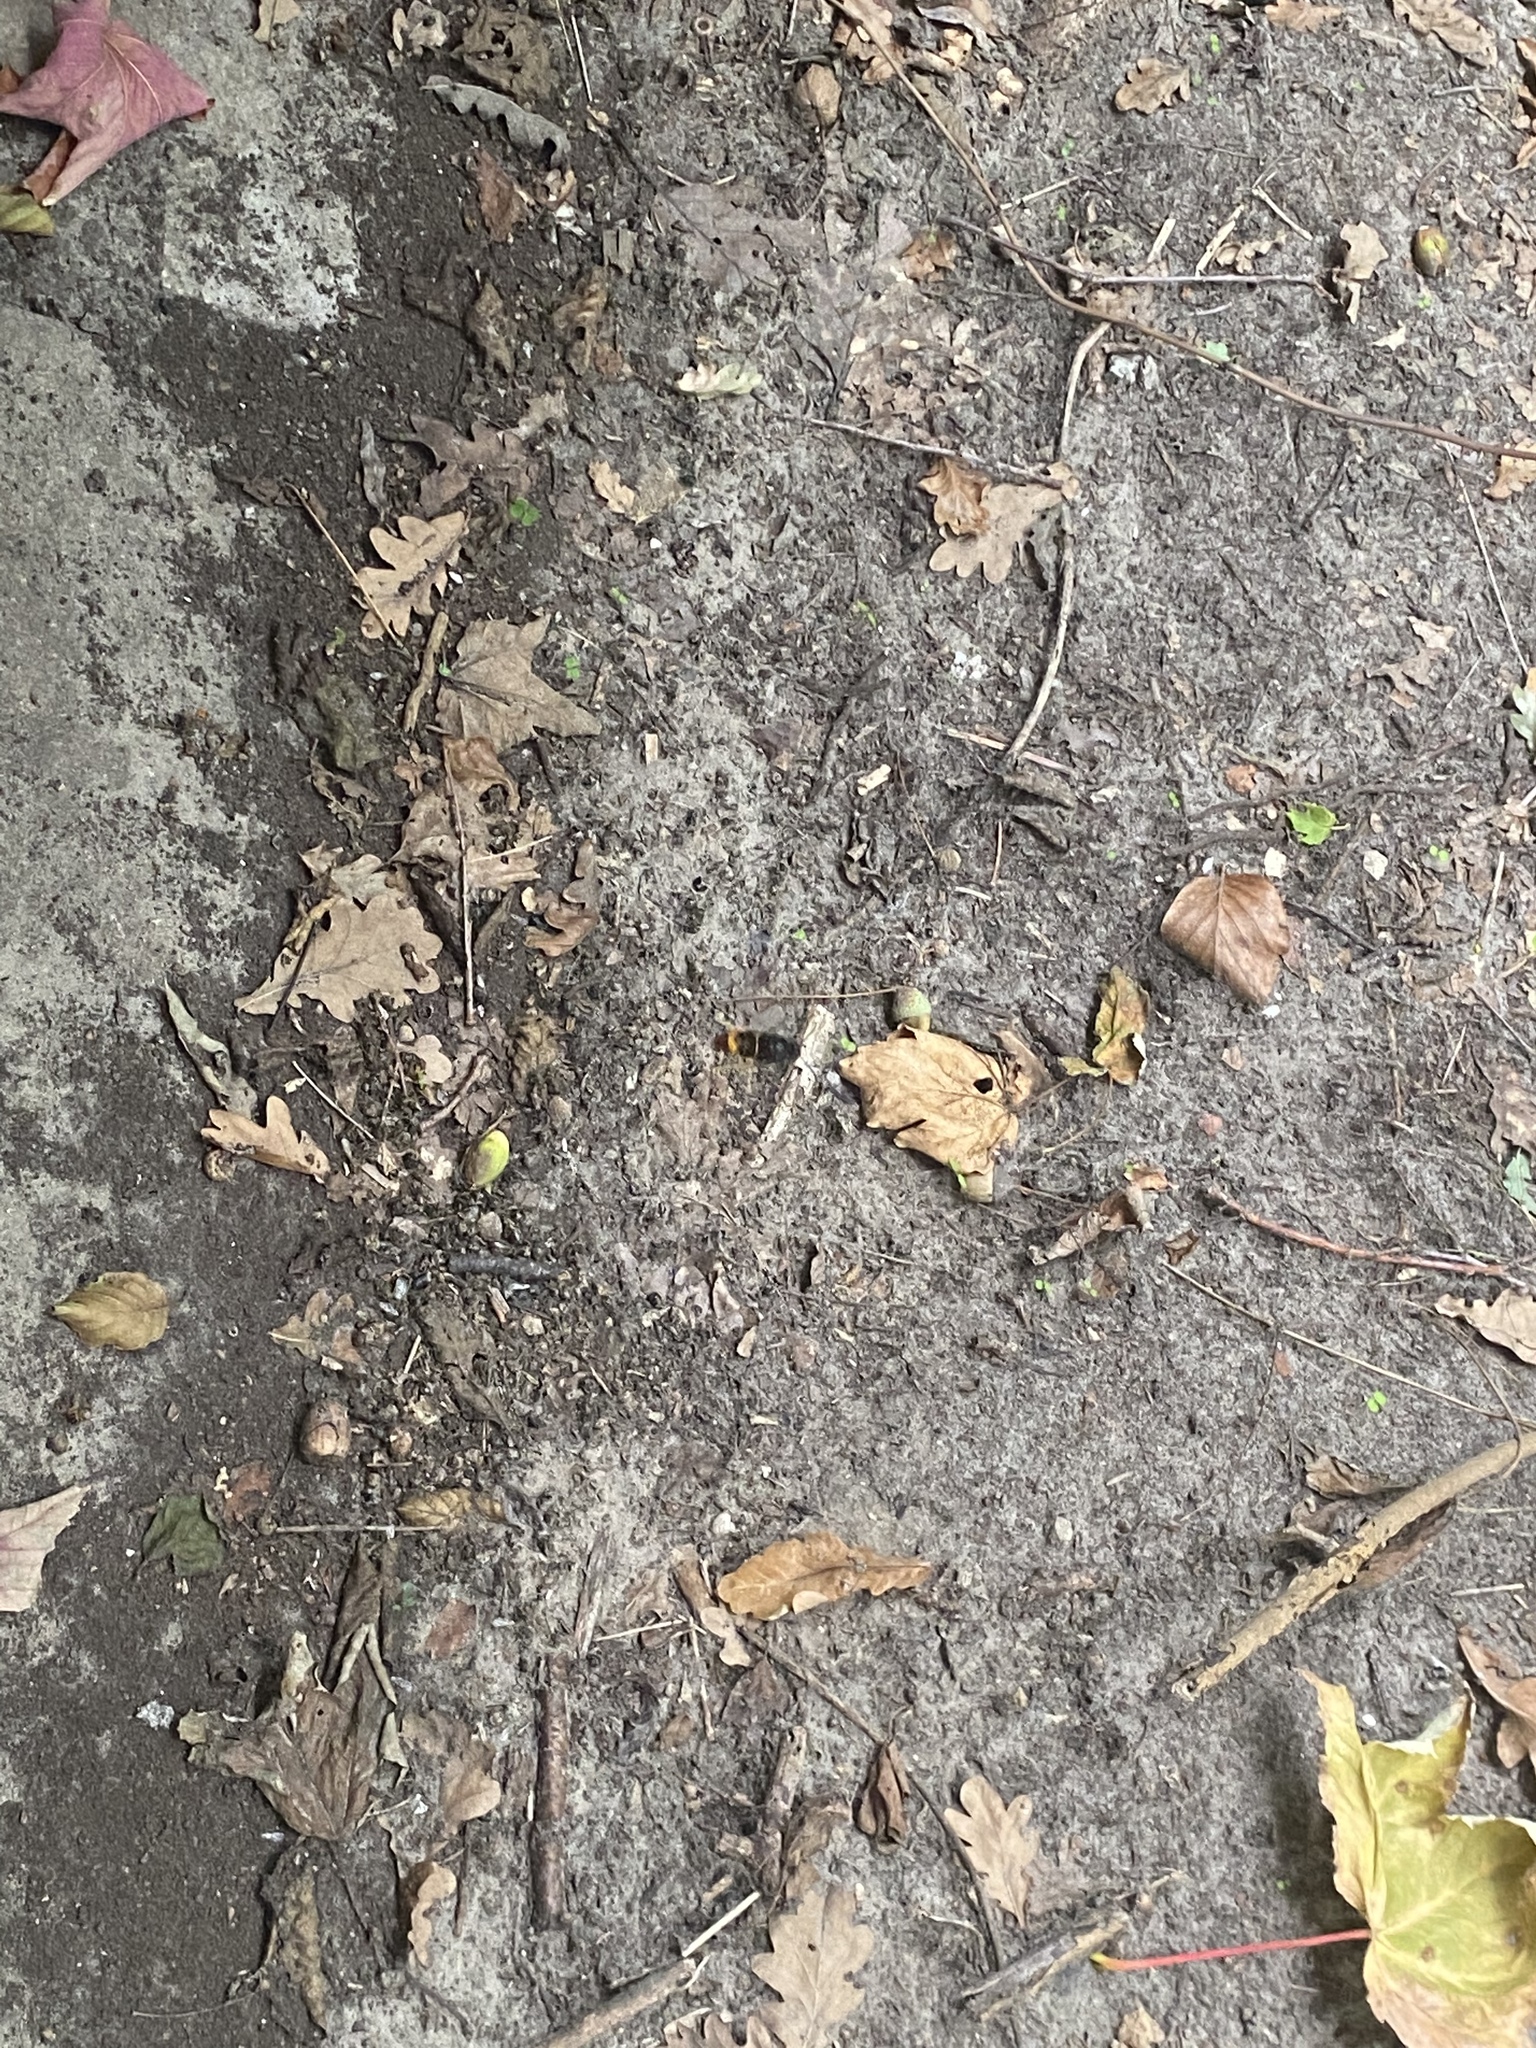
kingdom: Animalia
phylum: Arthropoda
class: Insecta
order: Hymenoptera
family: Vespidae
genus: Vespa
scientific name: Vespa velutina
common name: Asian hornet
